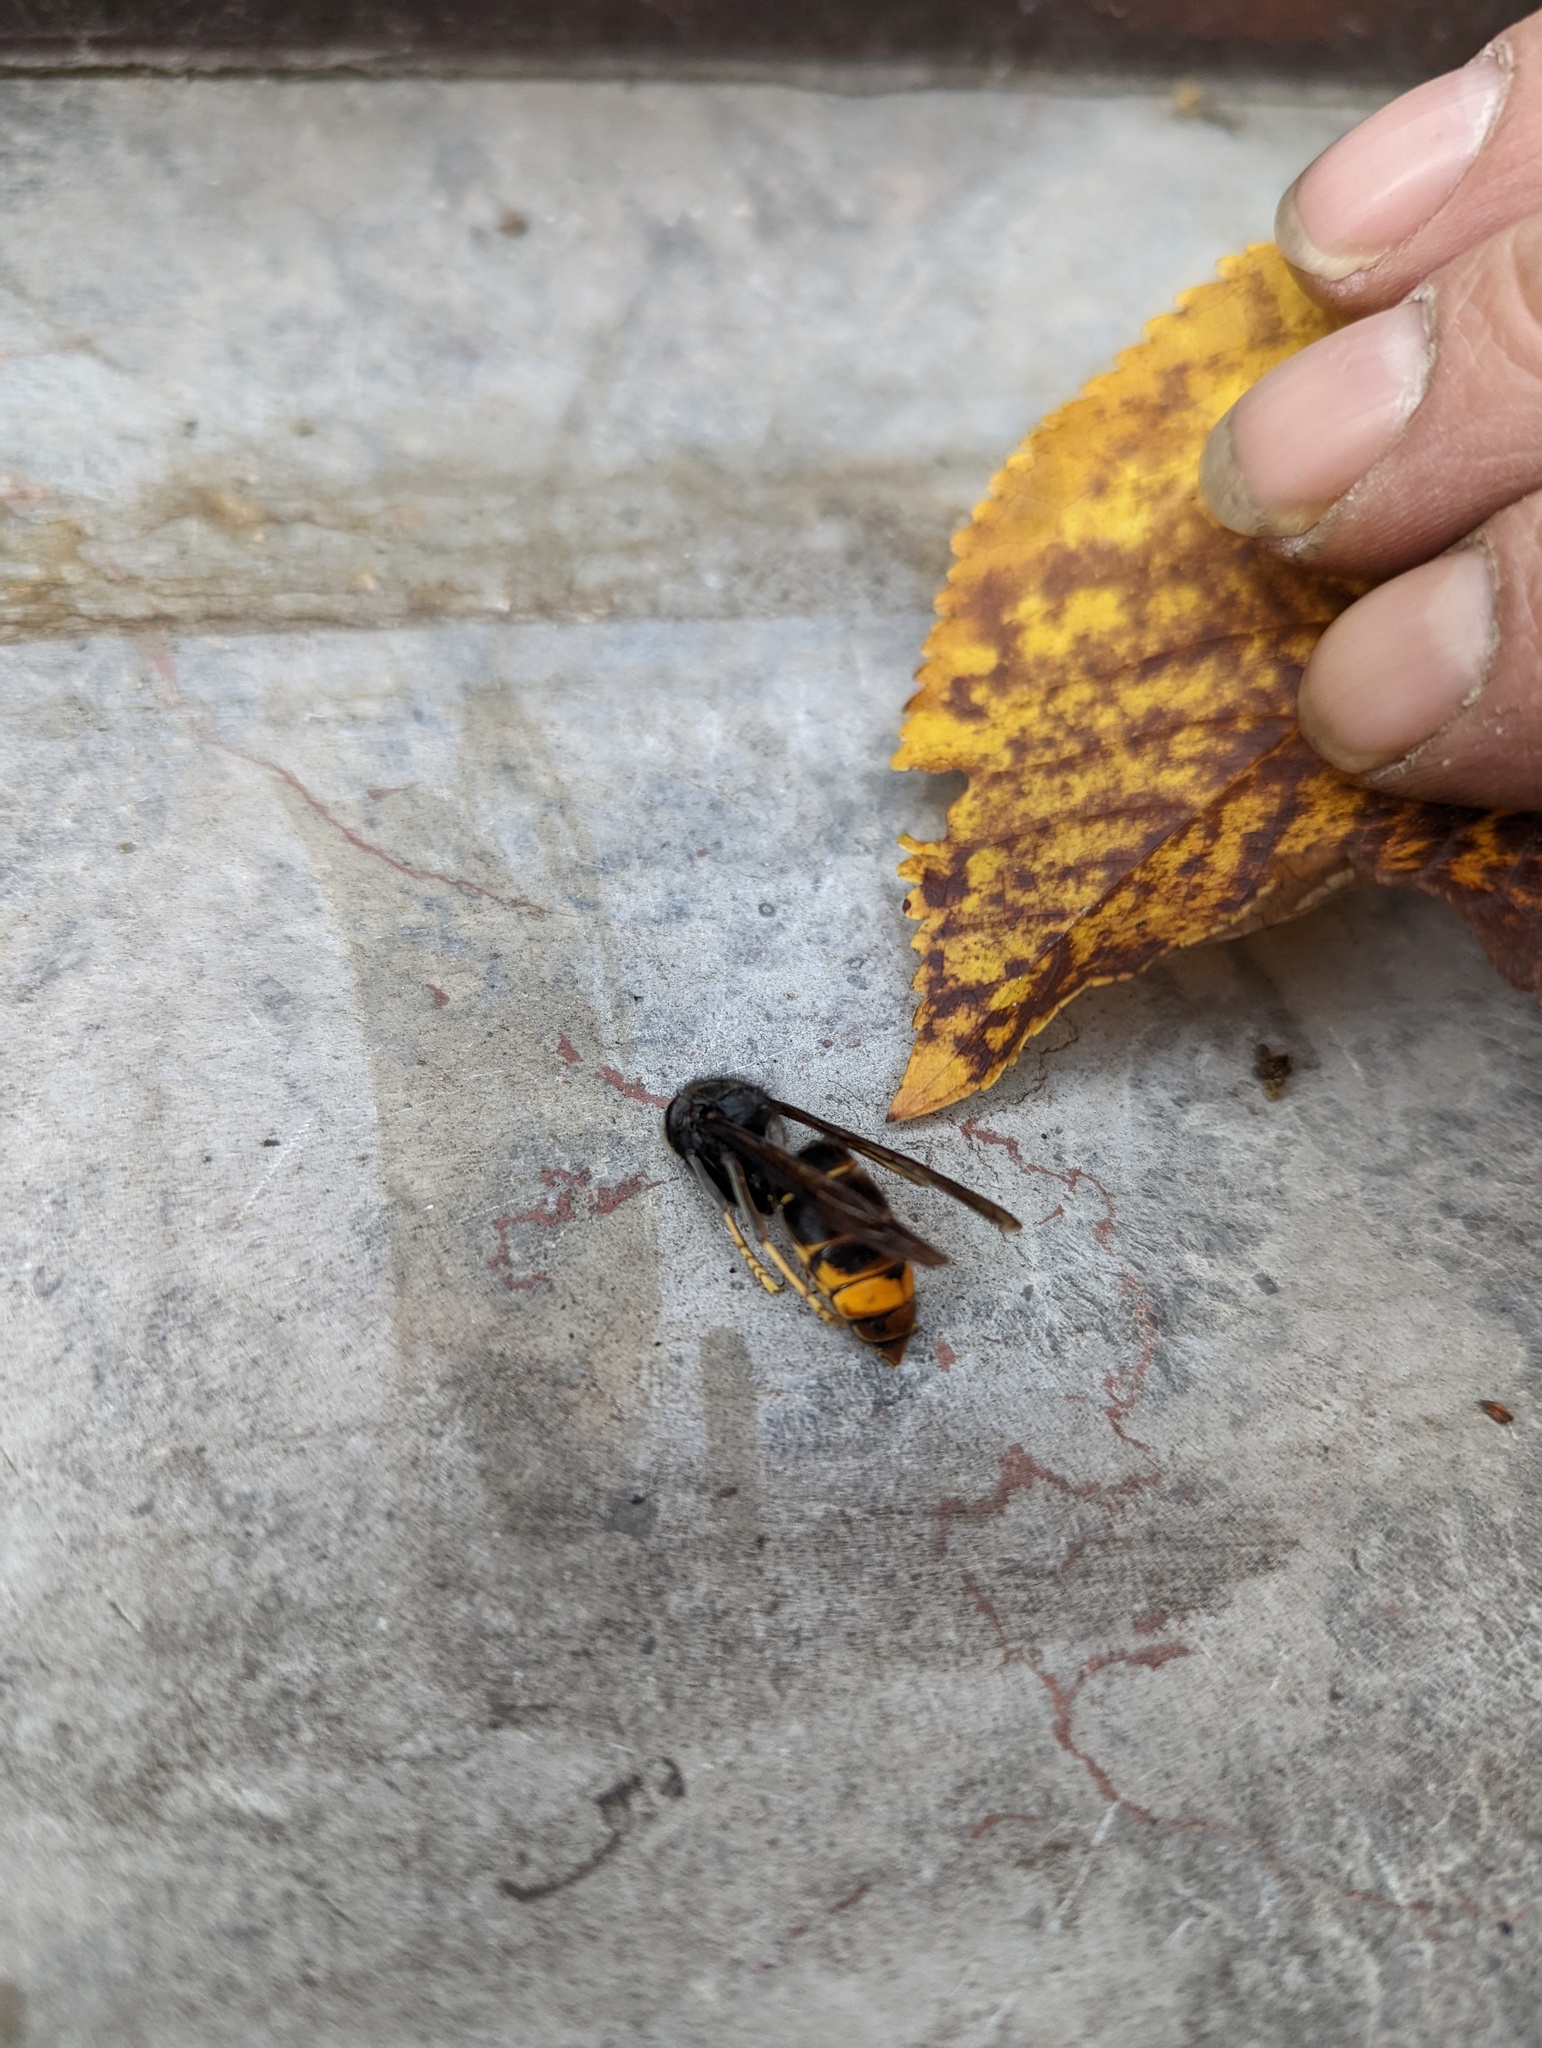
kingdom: Animalia
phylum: Arthropoda
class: Insecta
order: Hymenoptera
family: Vespidae
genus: Vespa
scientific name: Vespa velutina
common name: Asian hornet
